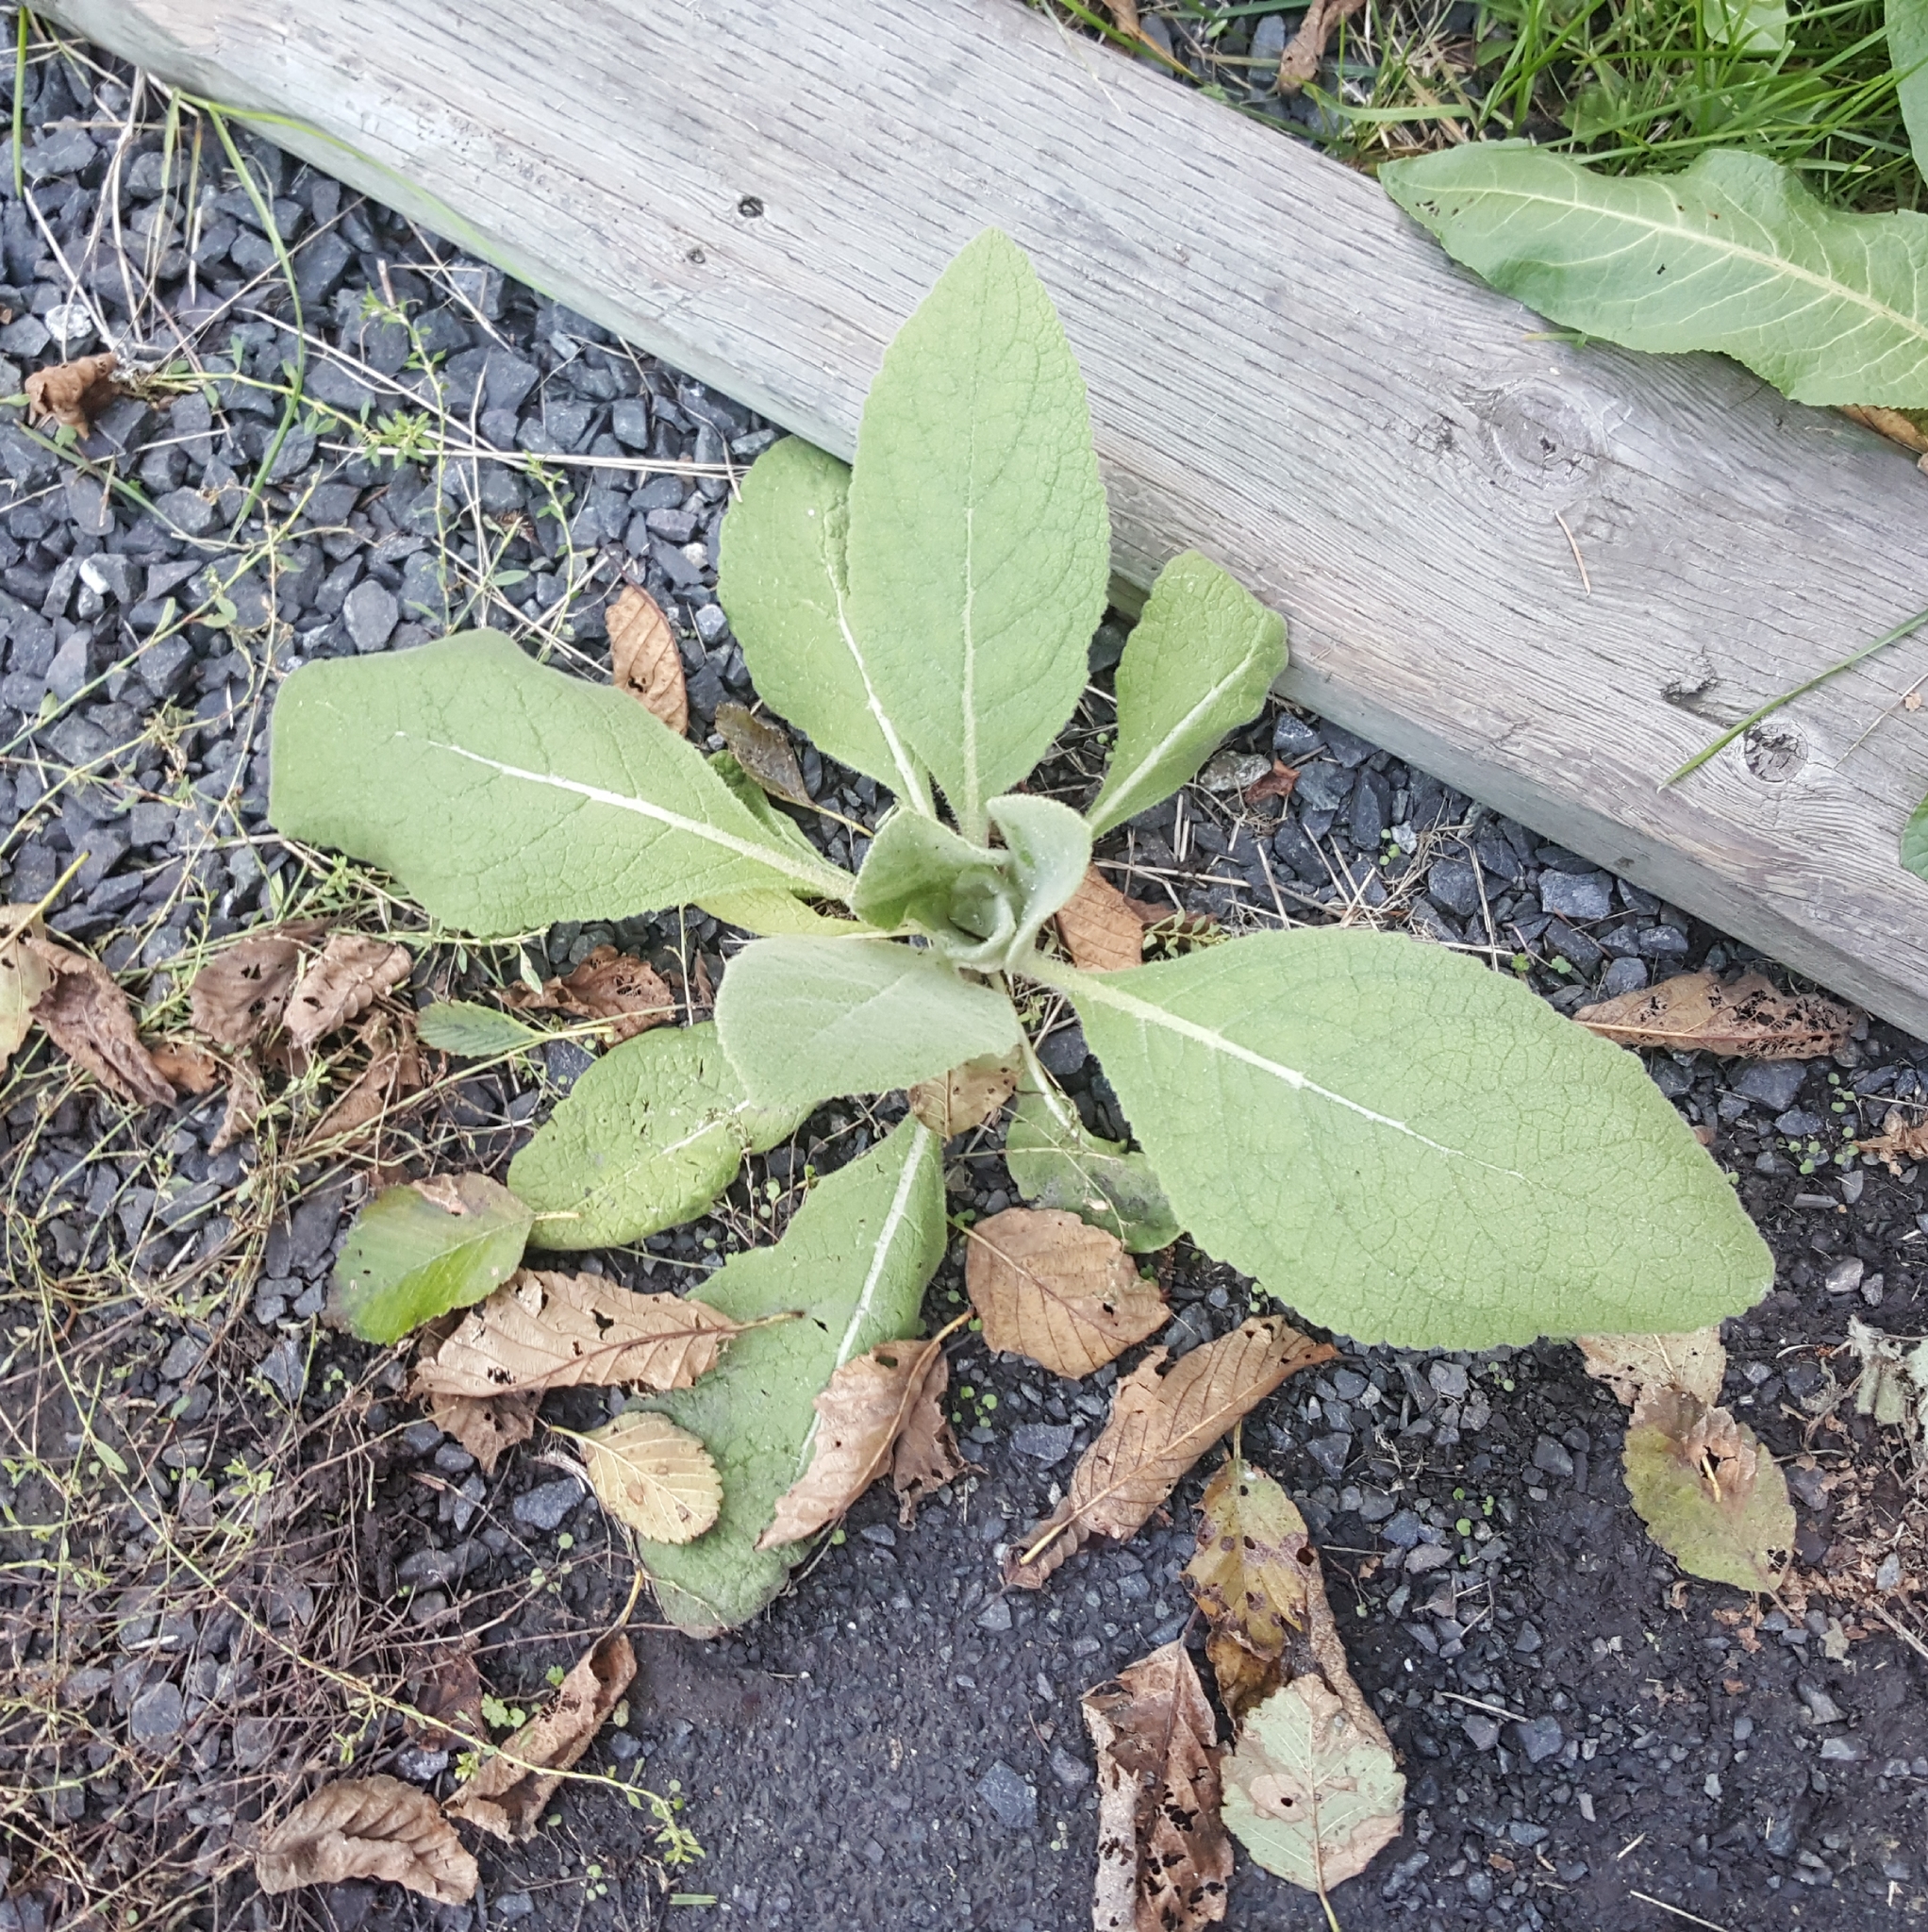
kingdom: Plantae
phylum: Tracheophyta
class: Magnoliopsida
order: Lamiales
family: Scrophulariaceae
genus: Verbascum
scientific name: Verbascum thapsus
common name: Common mullein
